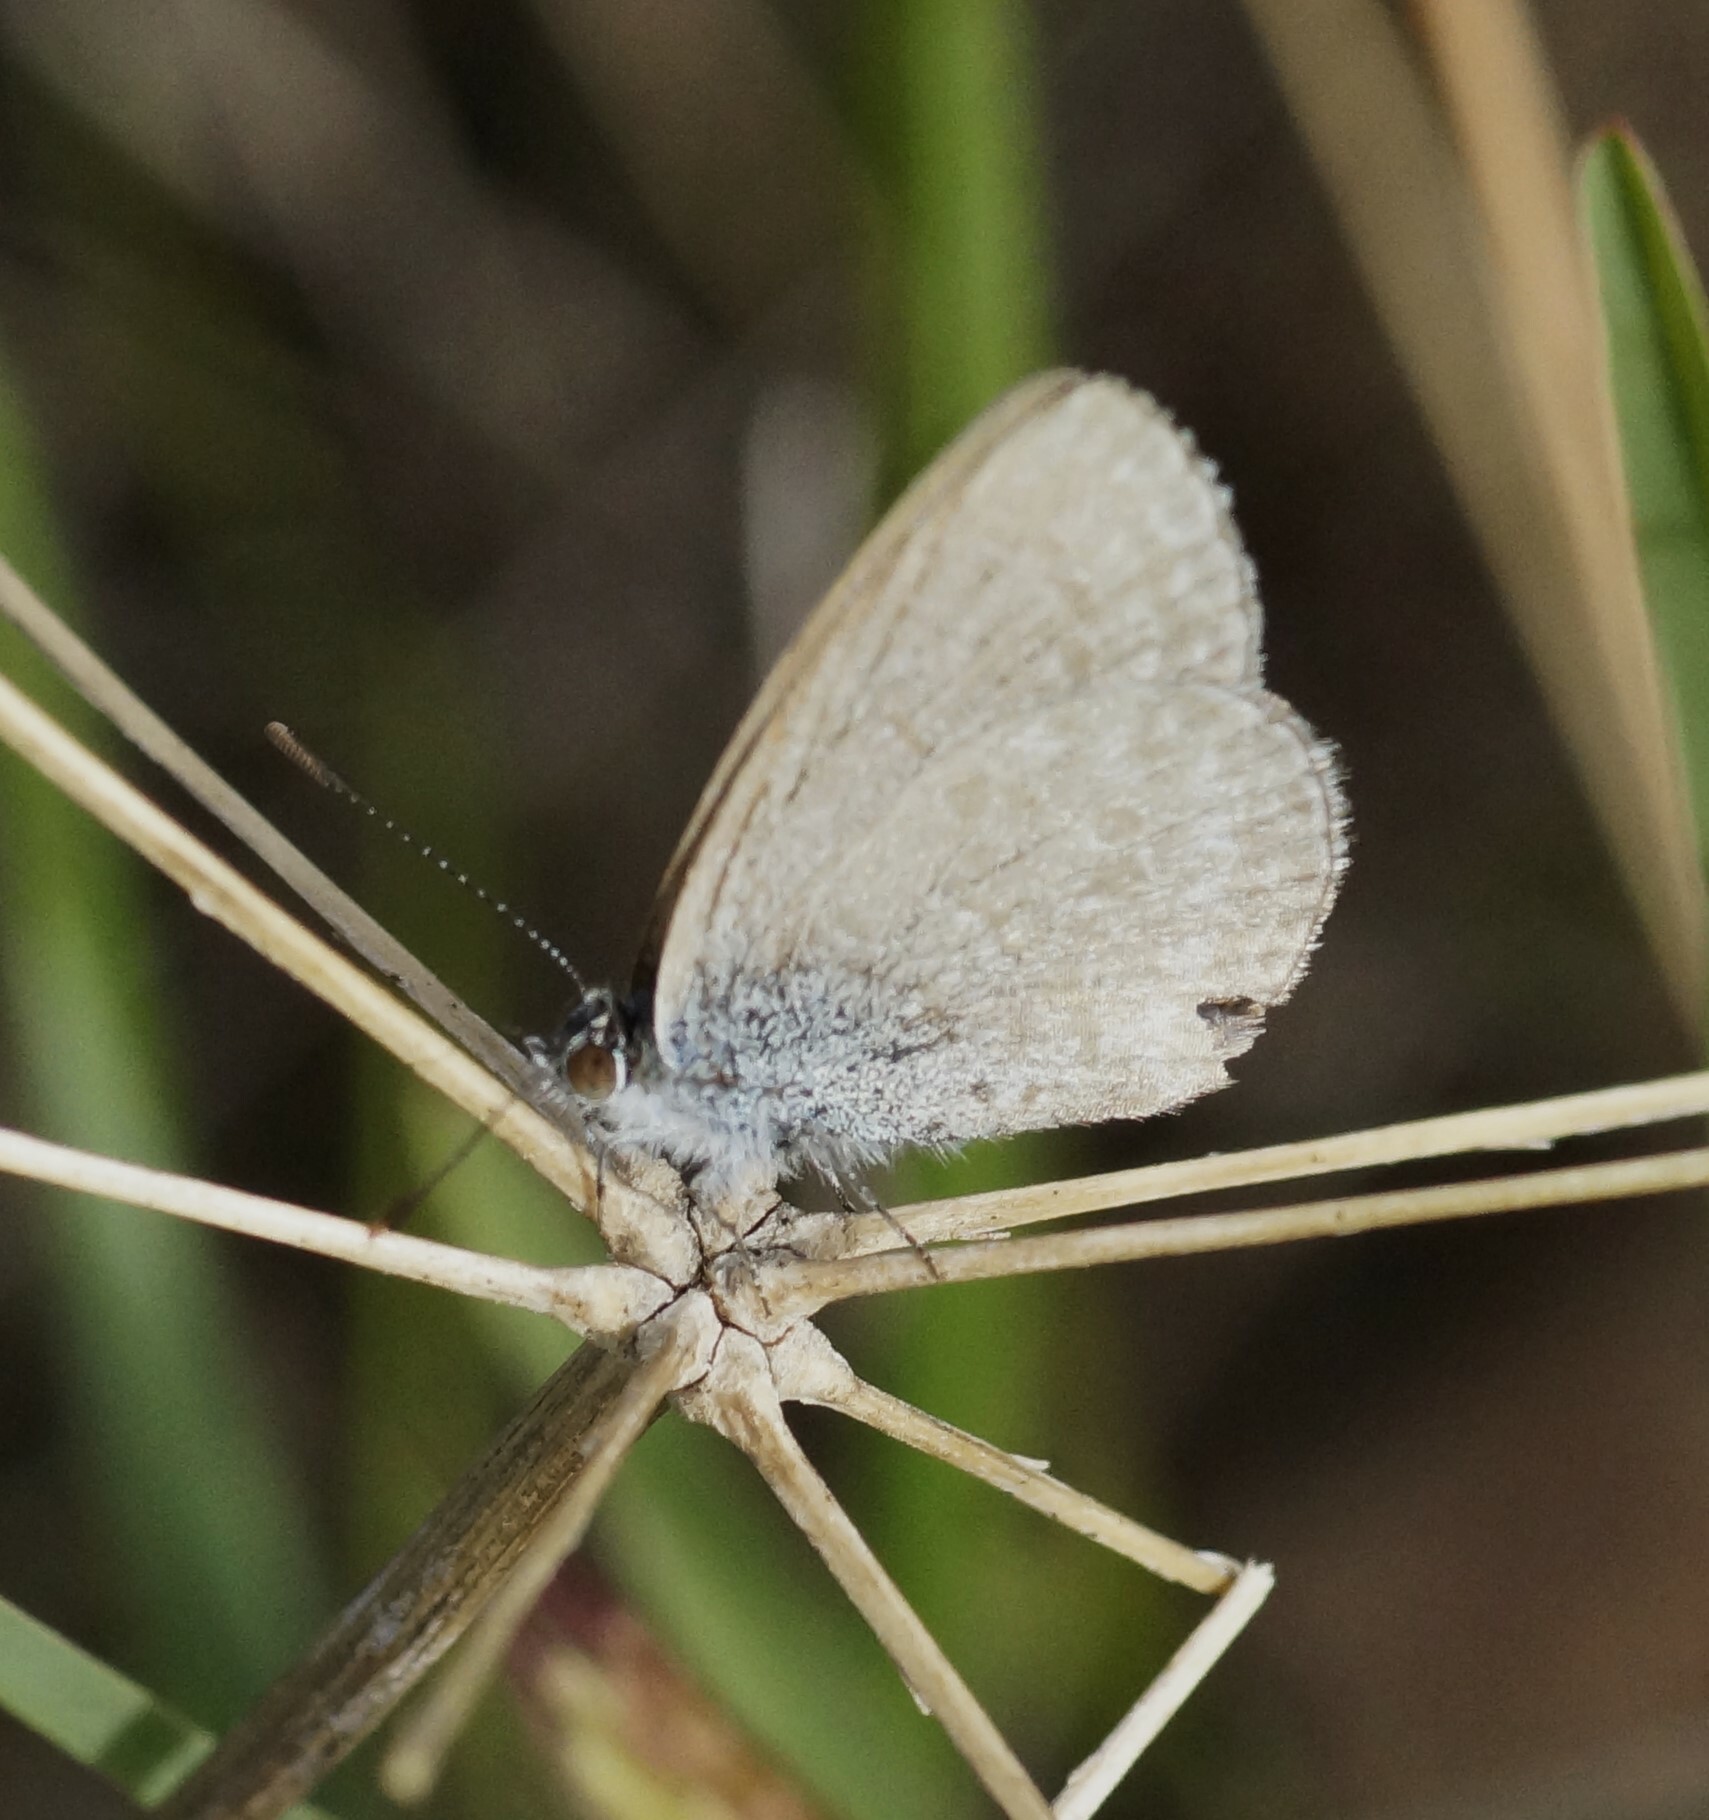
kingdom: Animalia
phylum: Arthropoda
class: Insecta
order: Lepidoptera
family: Lycaenidae
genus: Zizina
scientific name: Zizina otis
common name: Lesser grass blue
